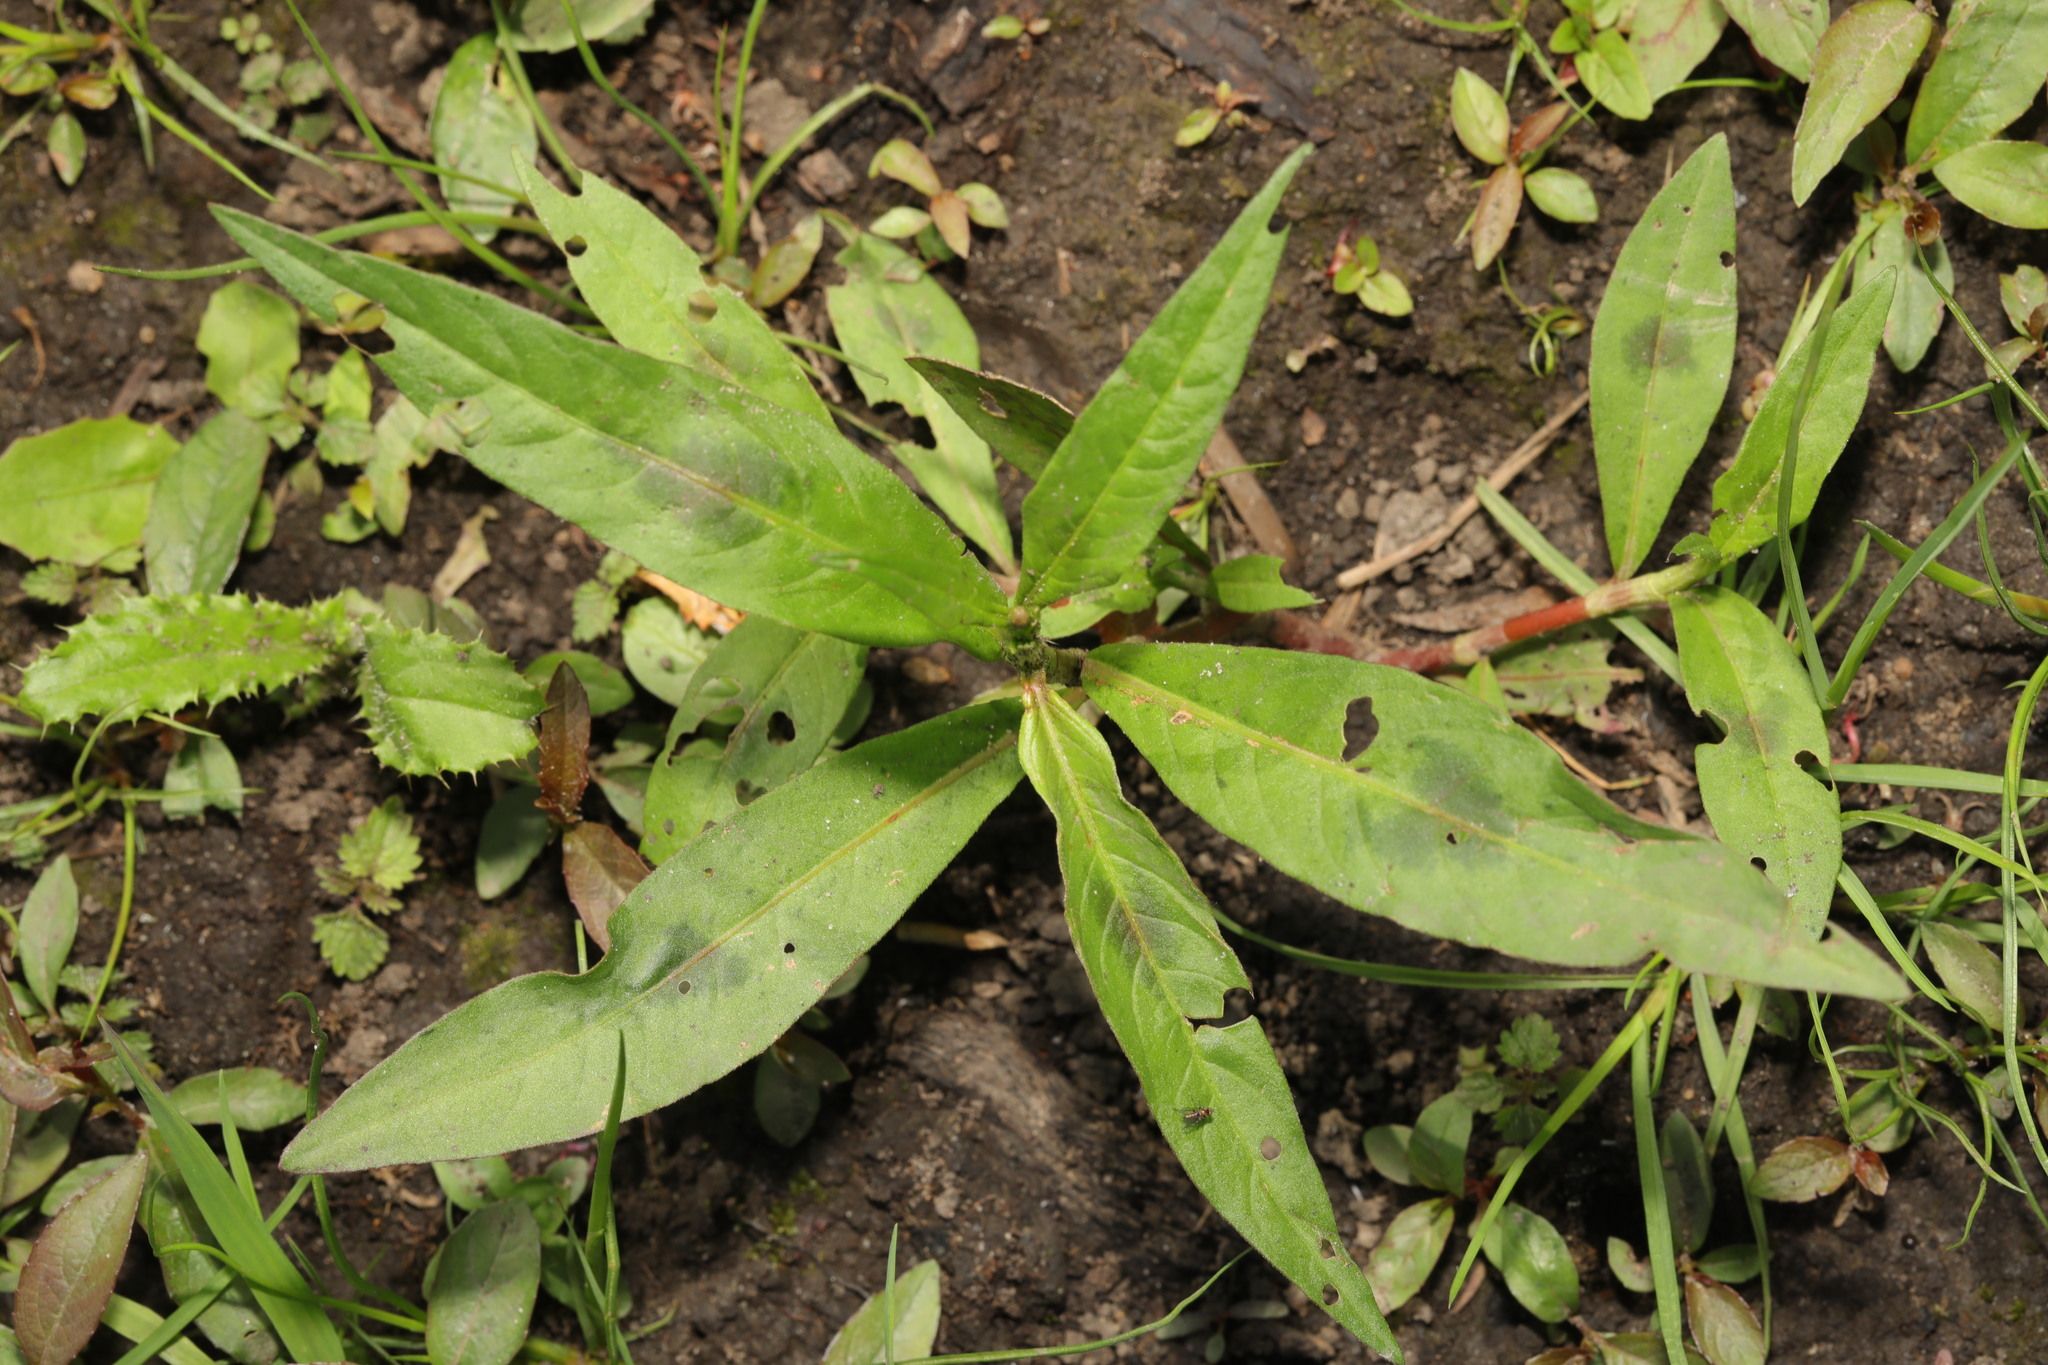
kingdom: Plantae
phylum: Tracheophyta
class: Magnoliopsida
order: Caryophyllales
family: Polygonaceae
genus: Persicaria
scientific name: Persicaria maculosa
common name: Redshank
